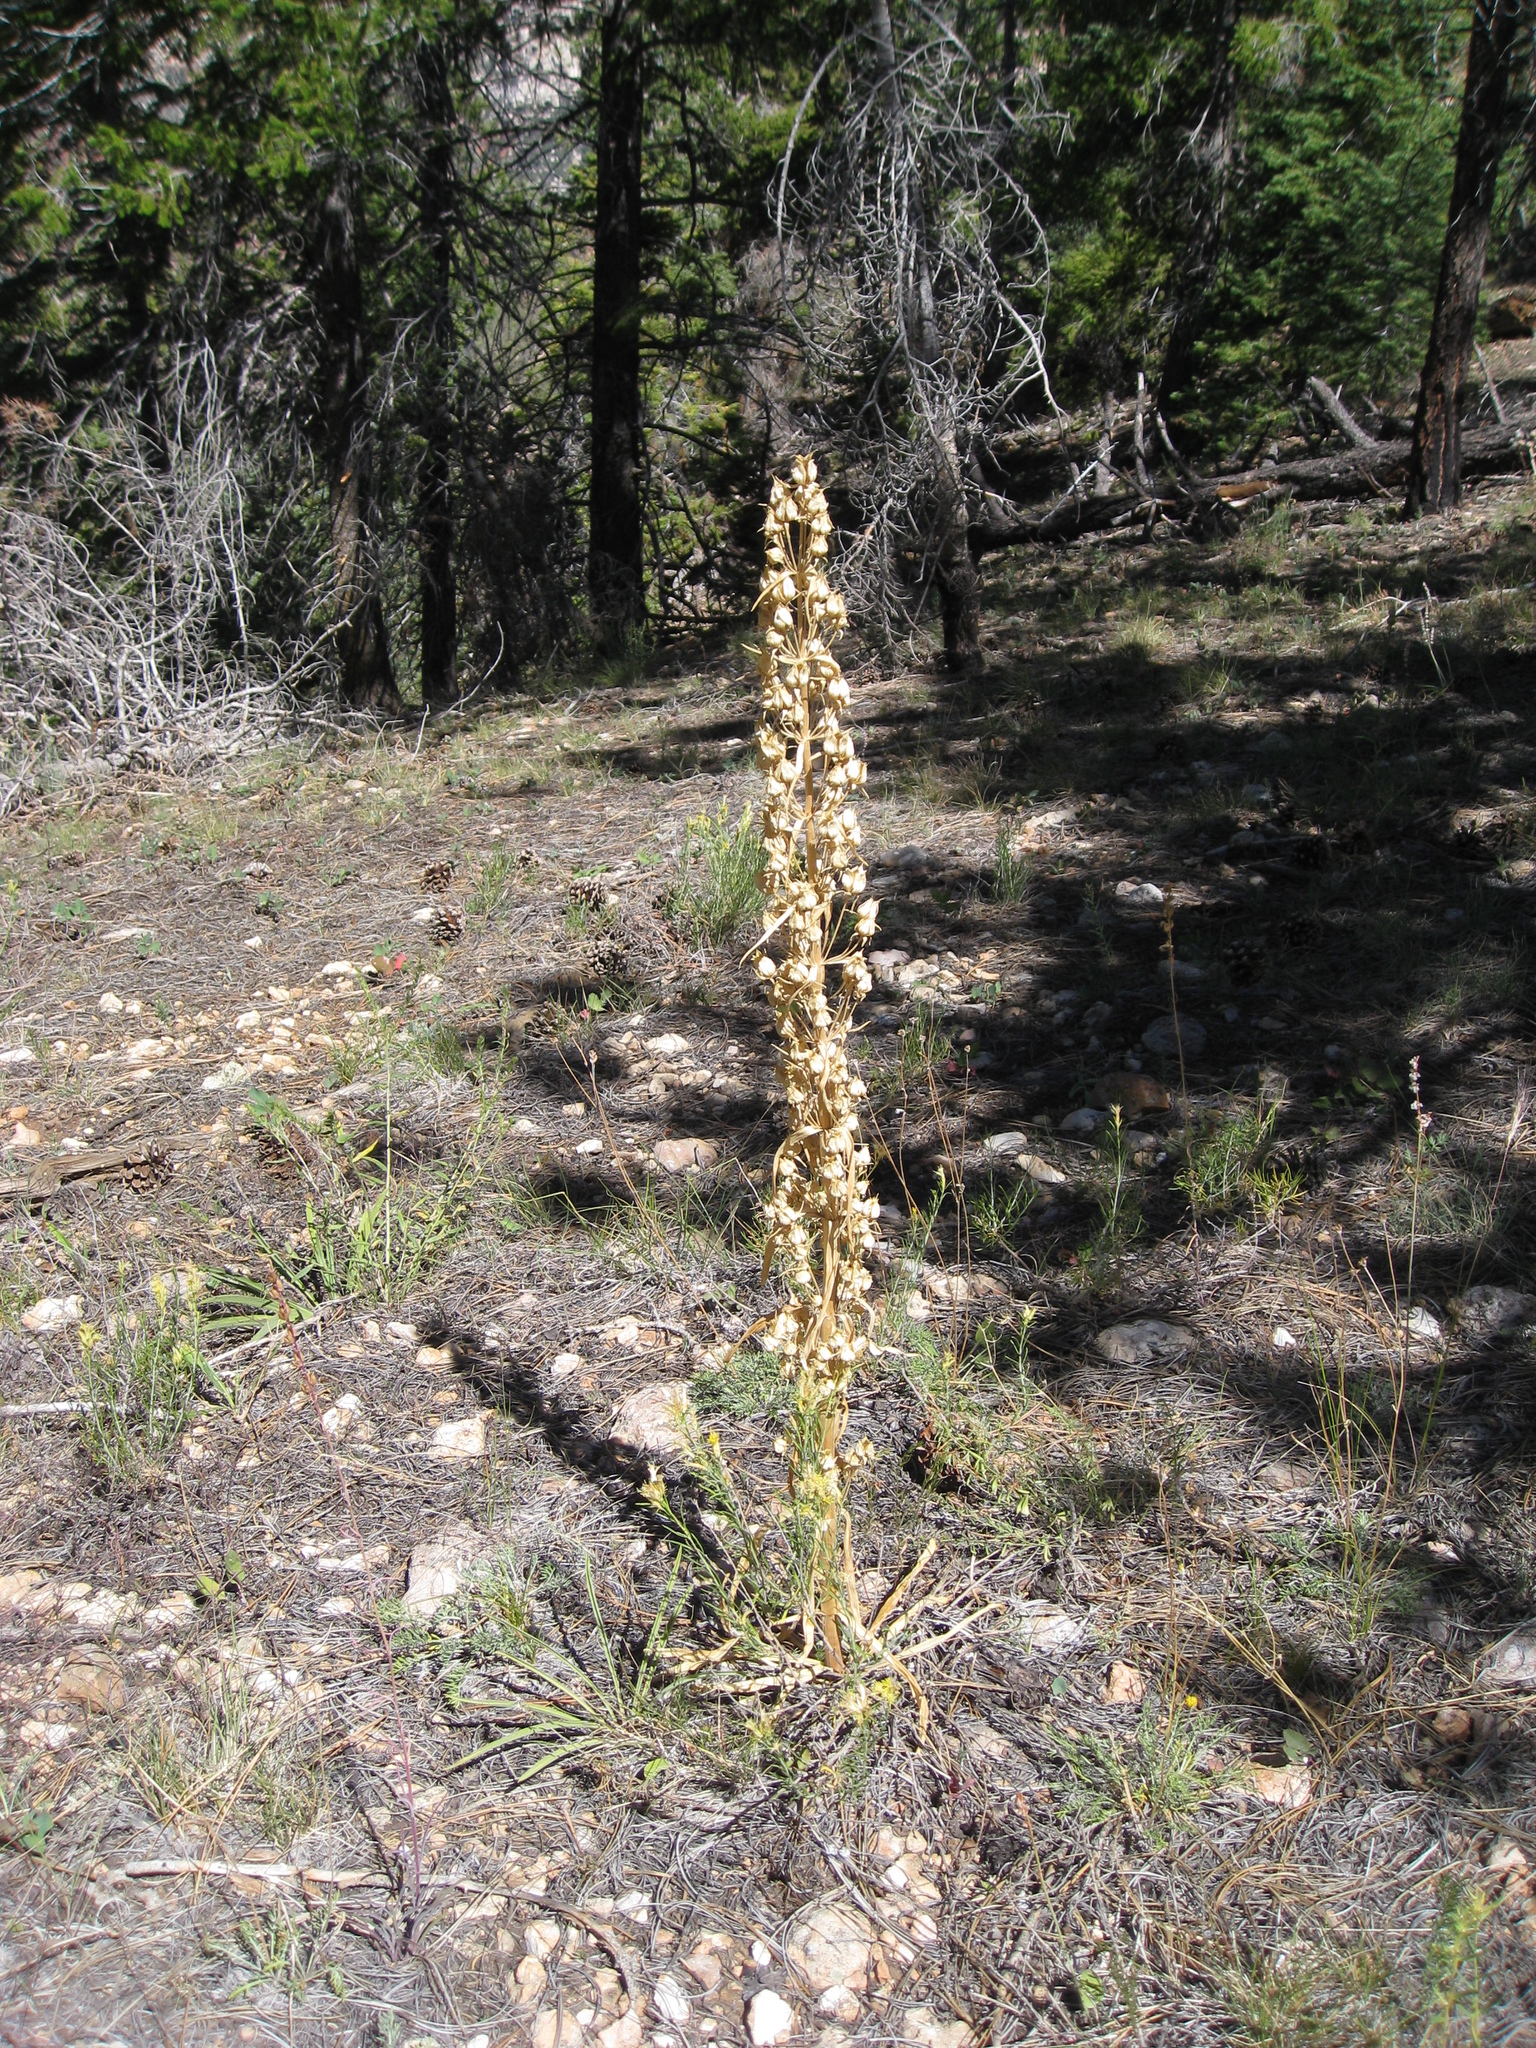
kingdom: Plantae
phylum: Tracheophyta
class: Magnoliopsida
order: Gentianales
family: Gentianaceae
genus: Frasera
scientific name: Frasera speciosa
